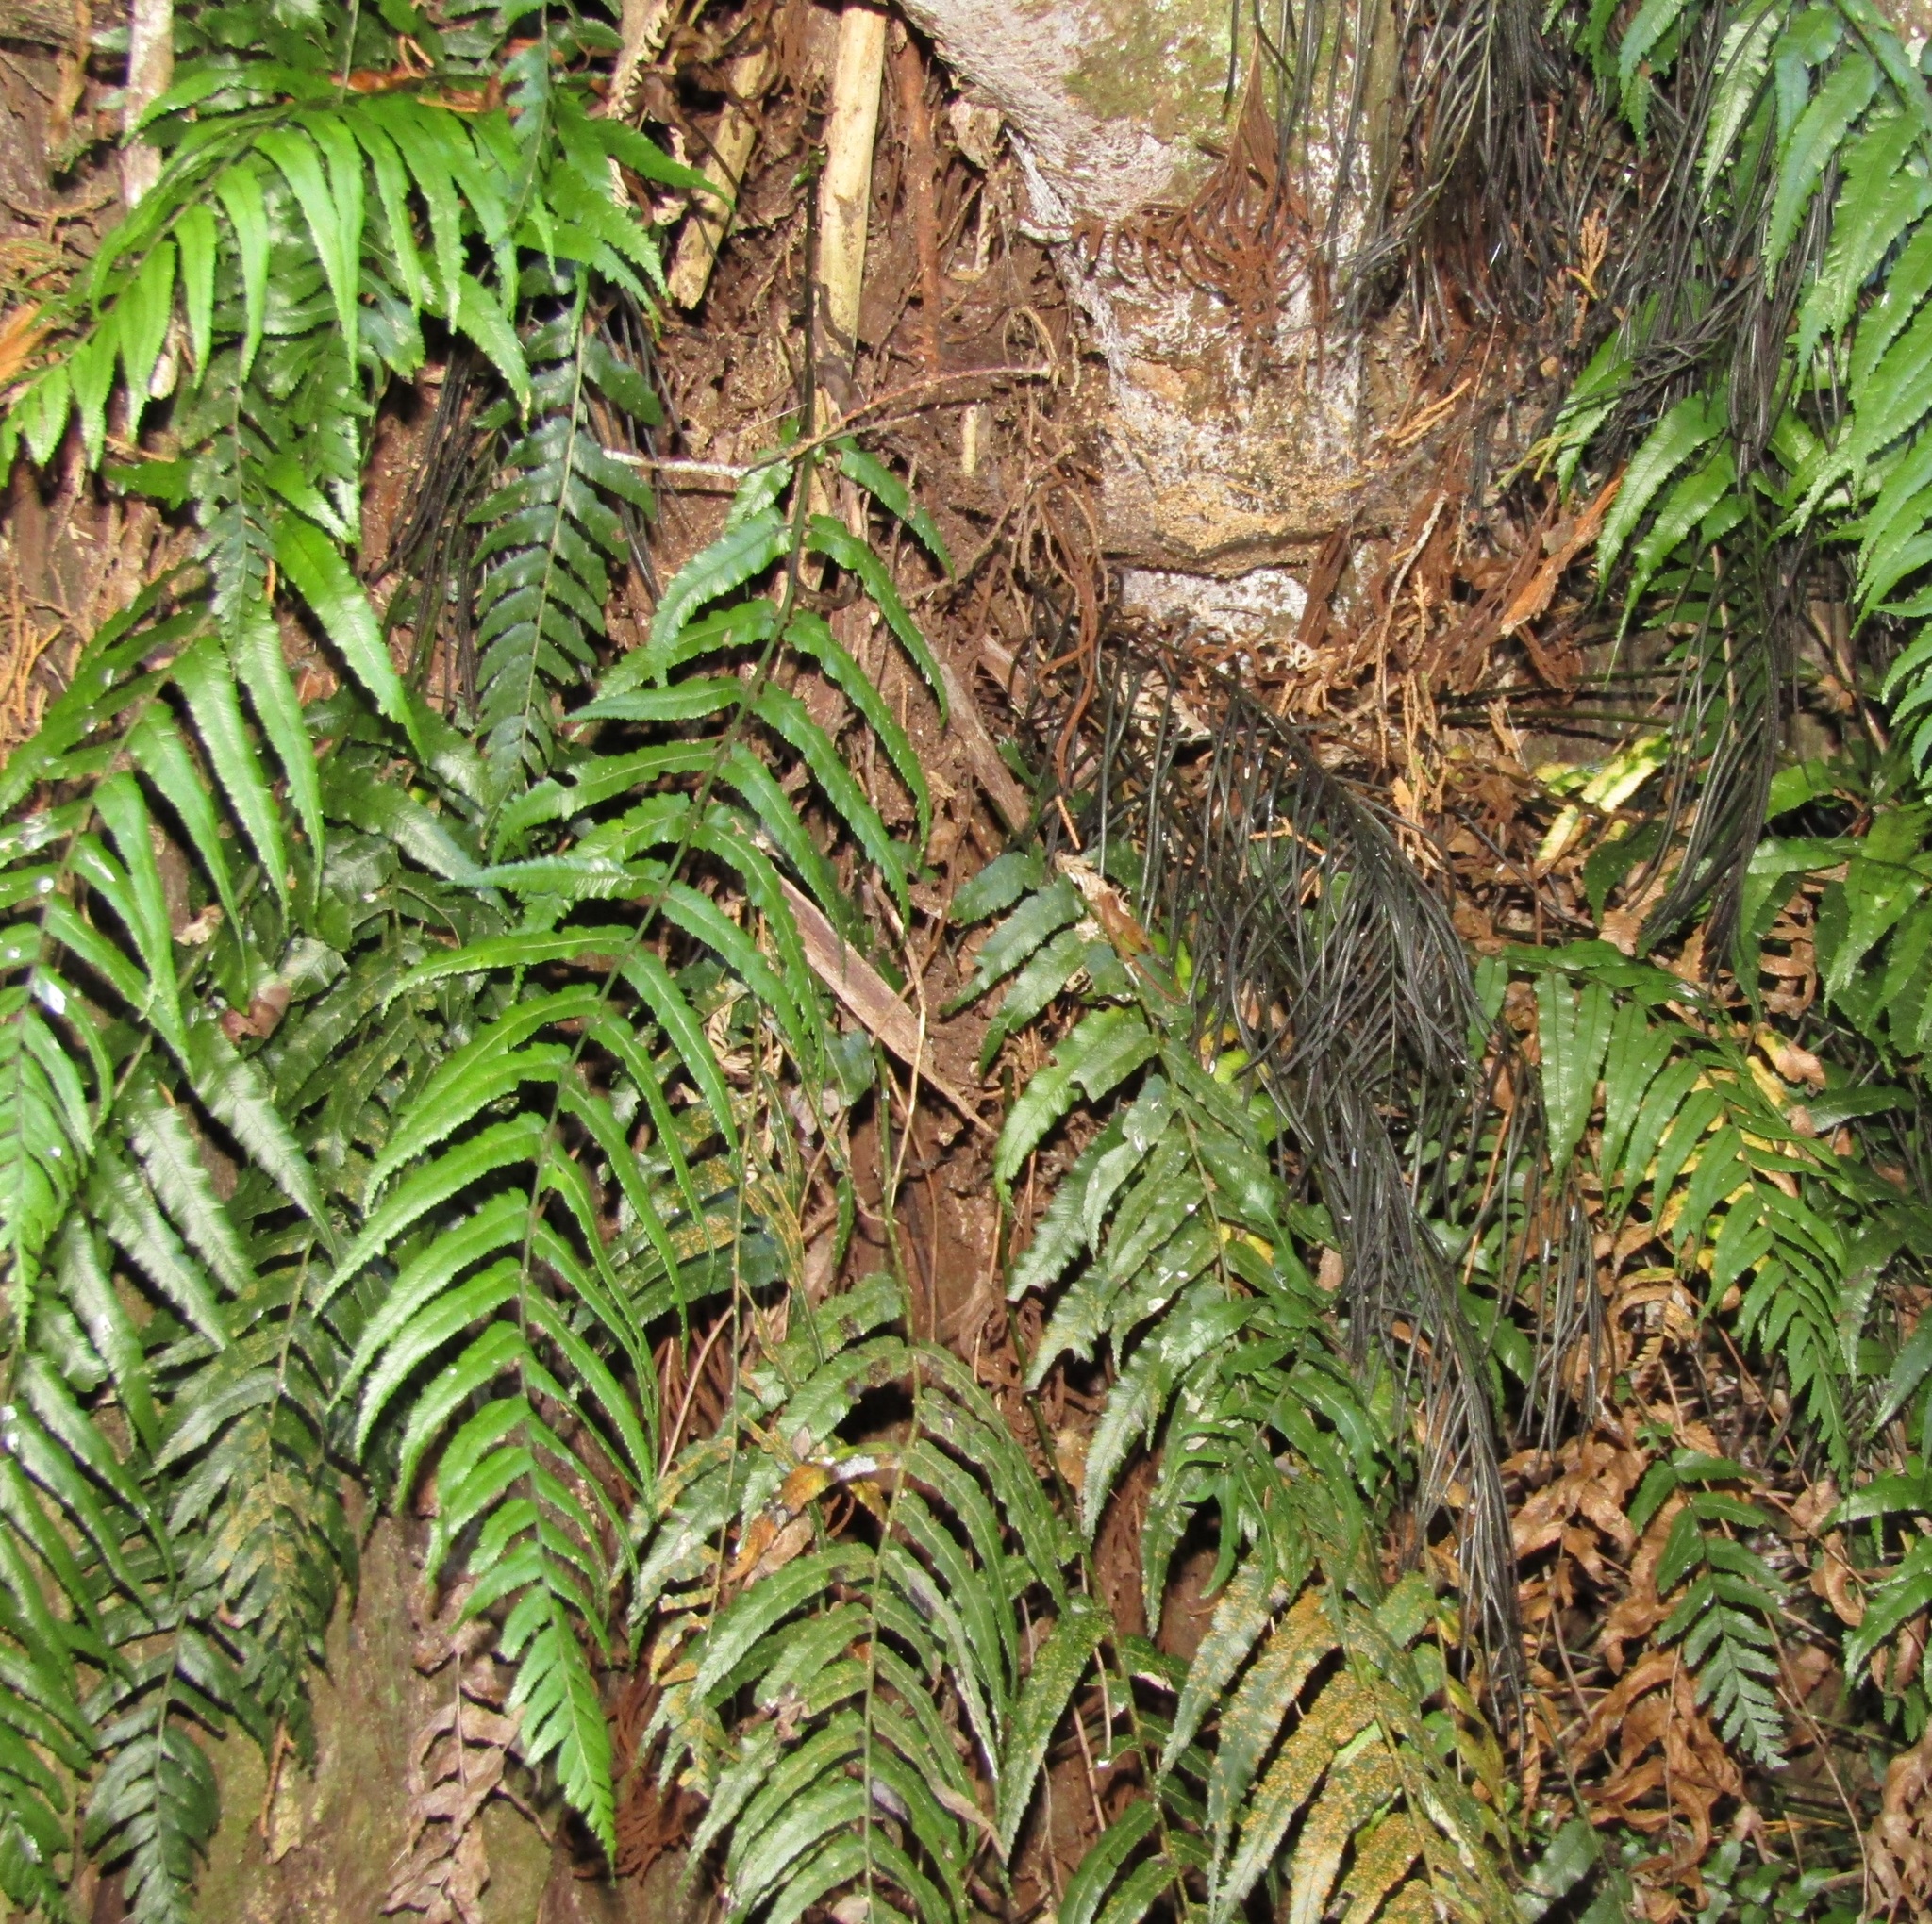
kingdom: Plantae
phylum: Tracheophyta
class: Polypodiopsida
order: Polypodiales
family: Blechnaceae
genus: Icarus
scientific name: Icarus filiformis
